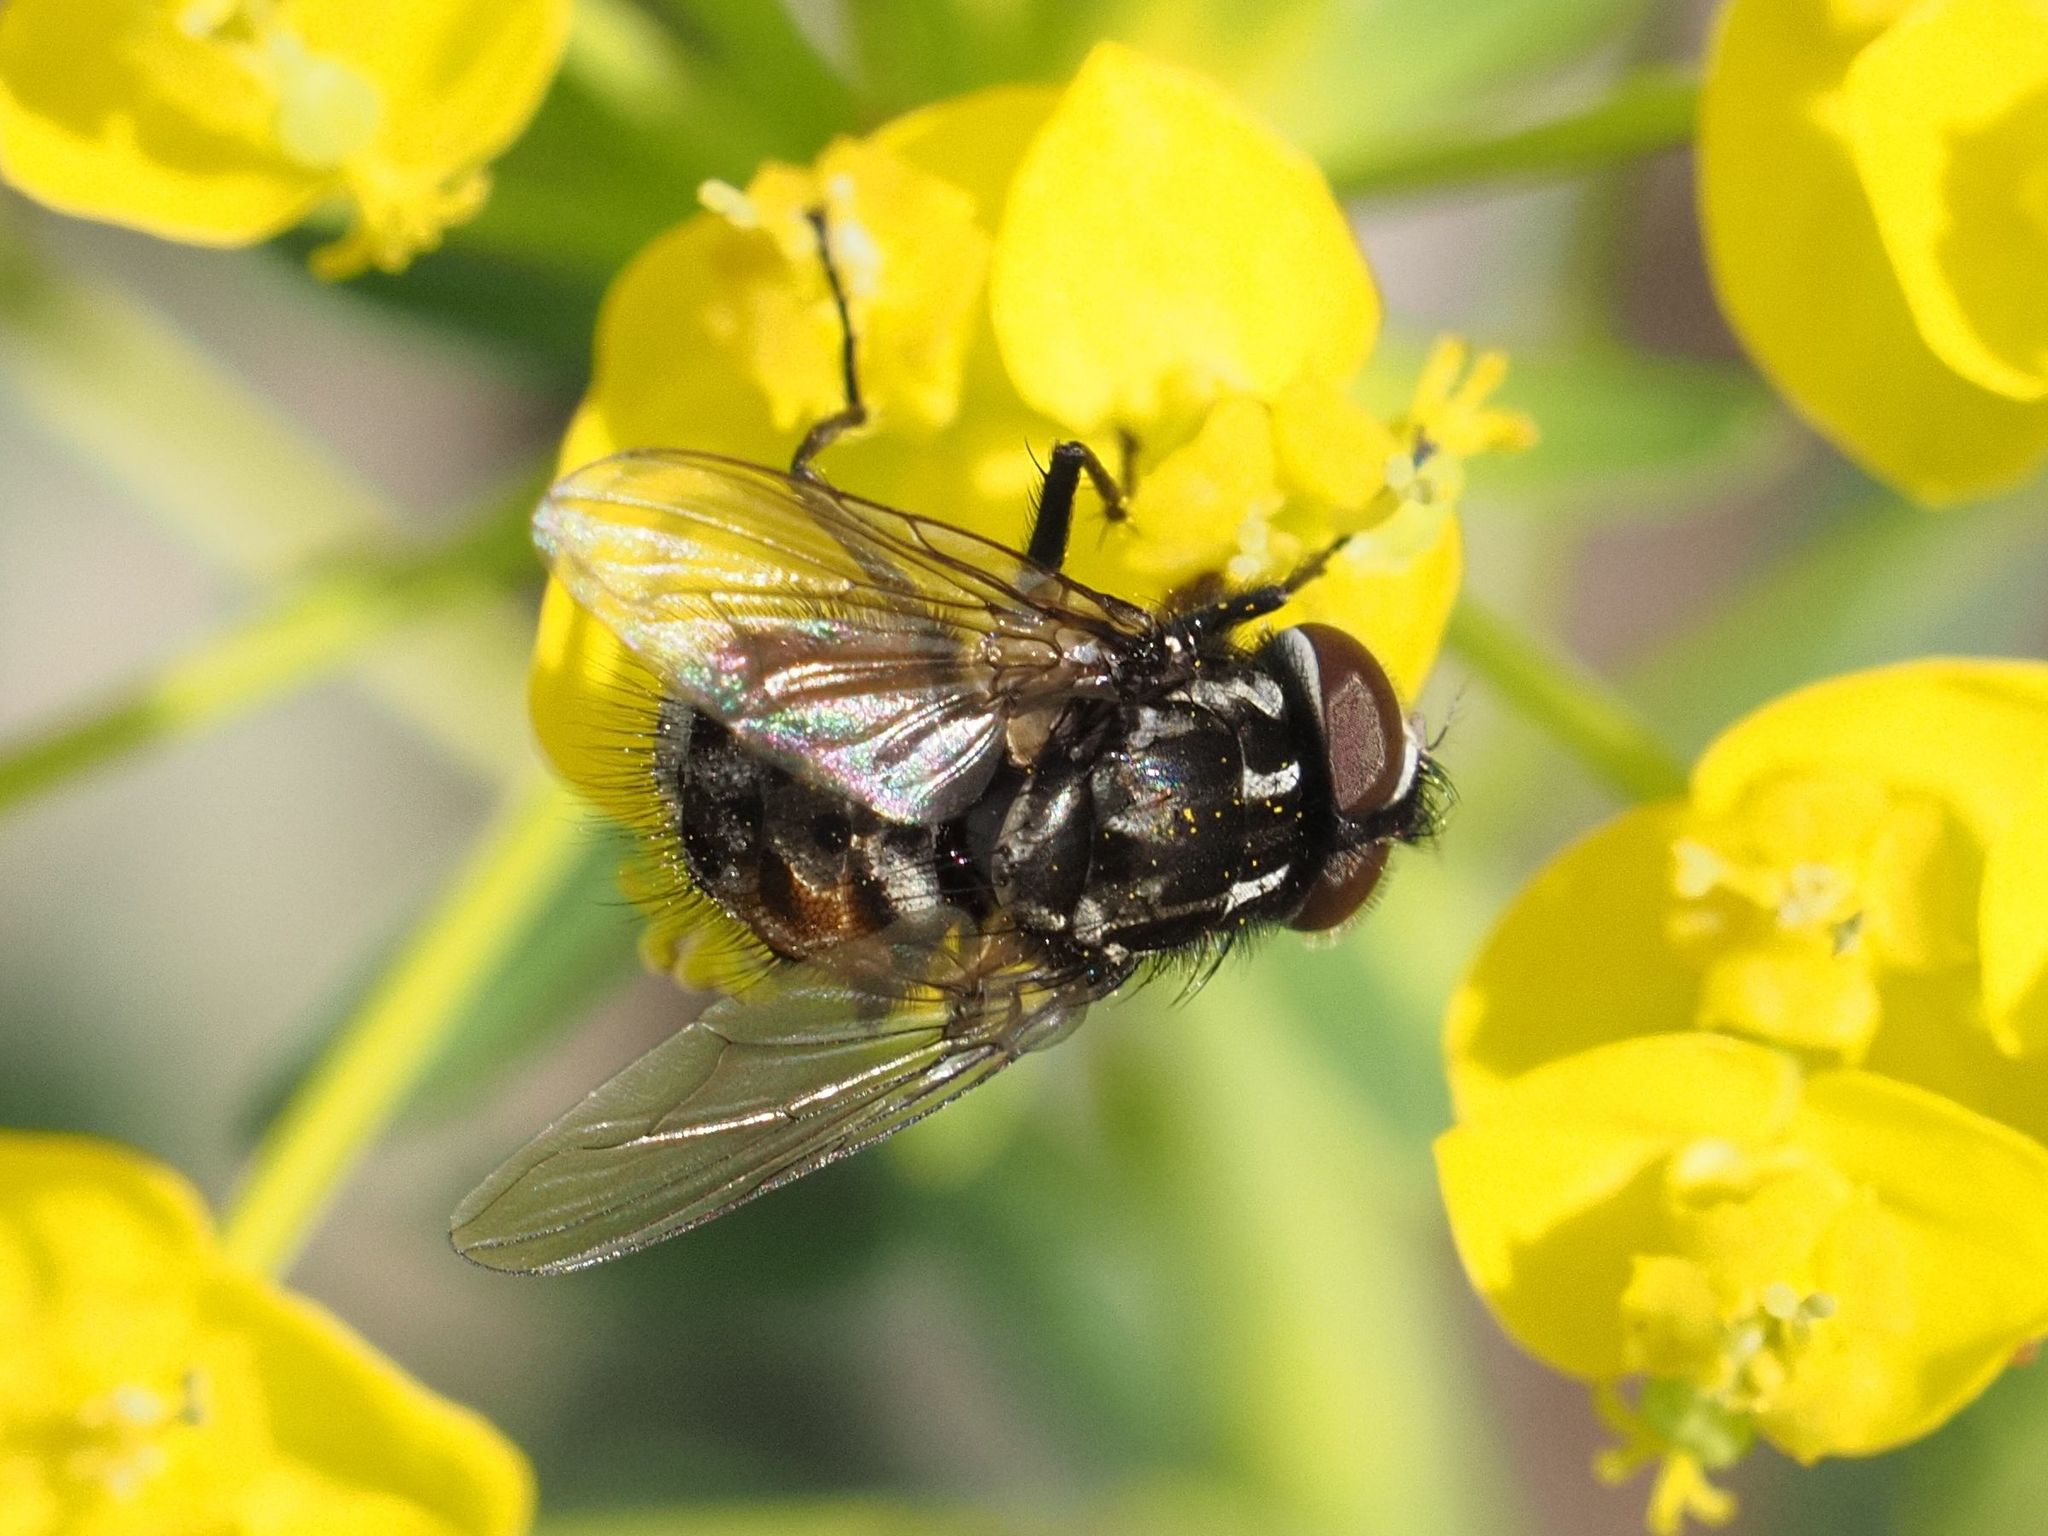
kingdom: Animalia
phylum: Arthropoda
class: Insecta
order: Diptera
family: Muscidae
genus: Graphomya
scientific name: Graphomya maculata
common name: Muscid fly
